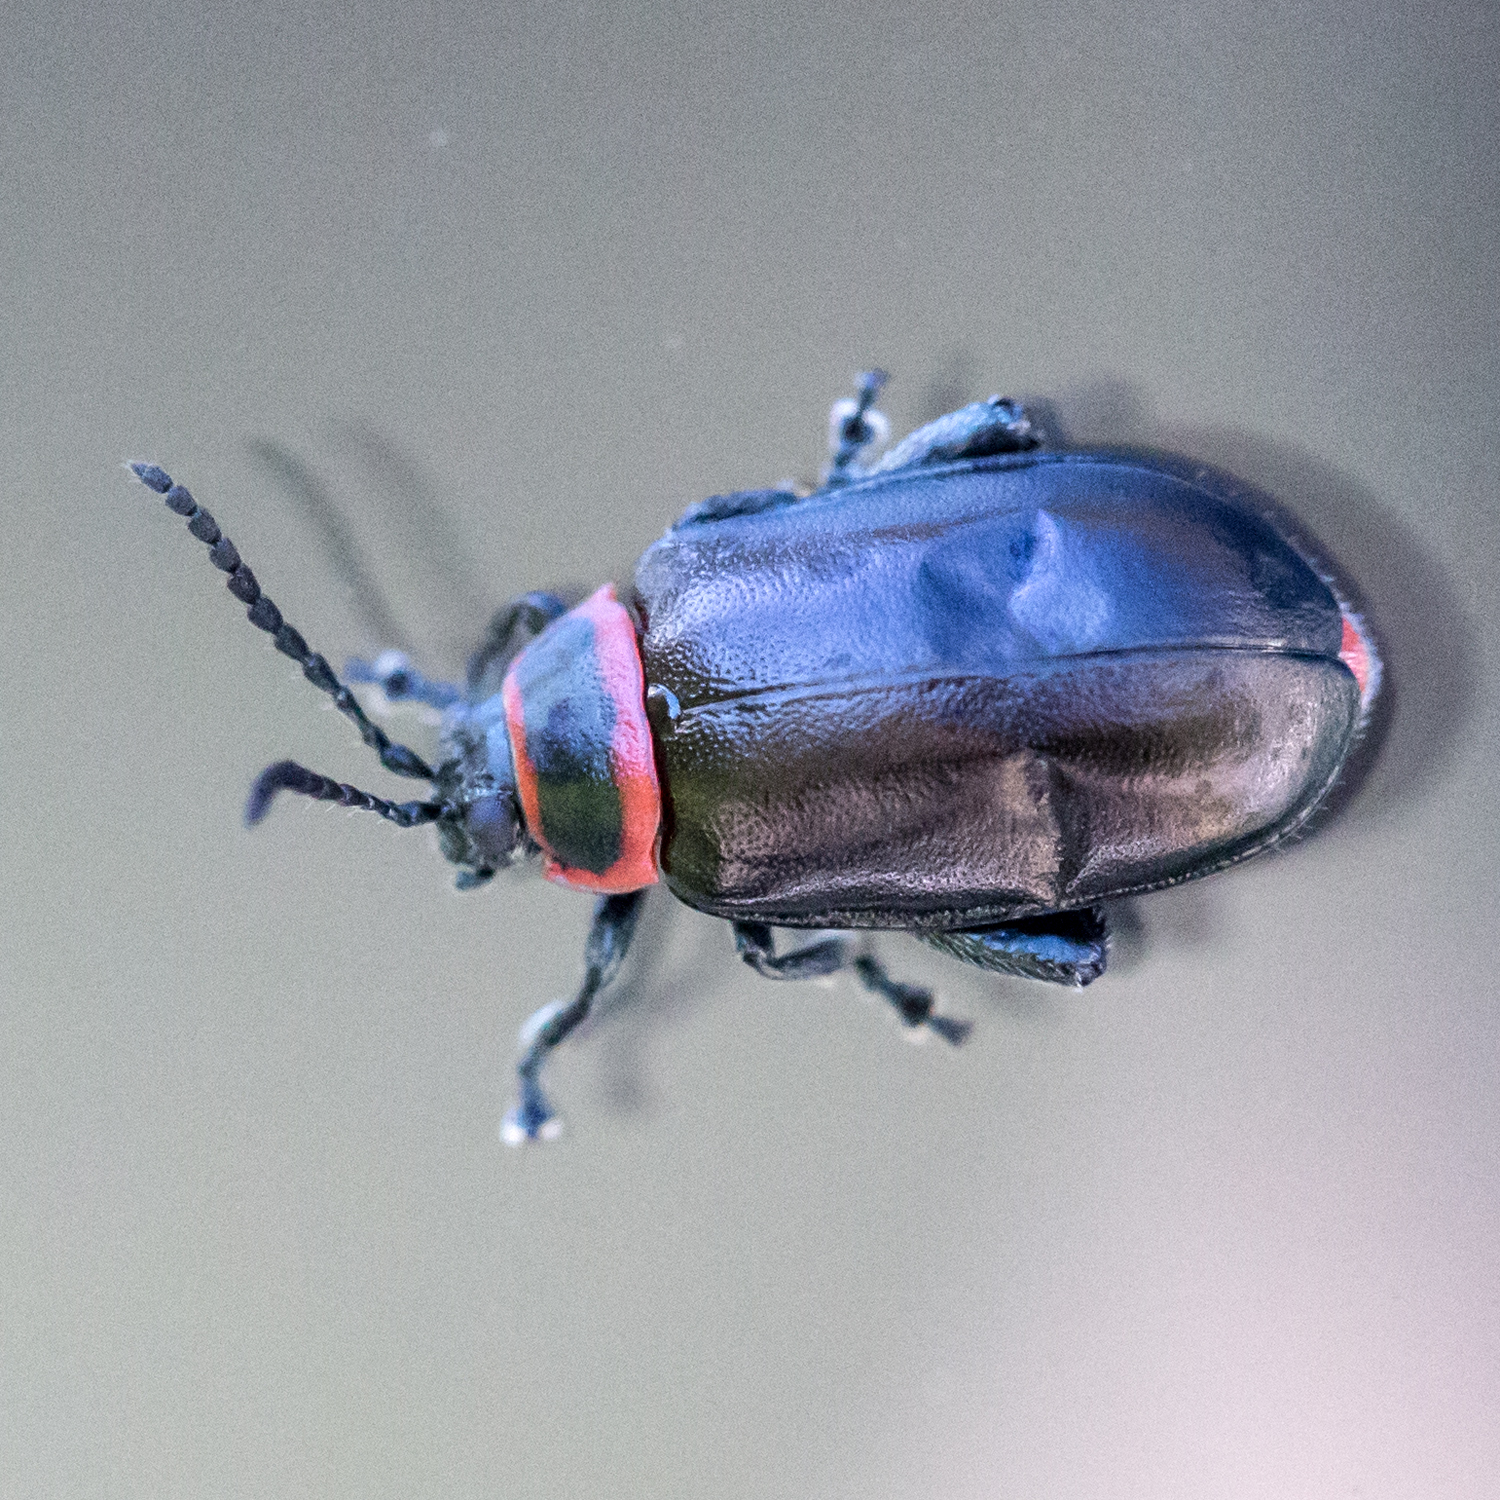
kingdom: Animalia
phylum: Arthropoda
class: Insecta
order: Coleoptera
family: Chrysomelidae
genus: Kuschelina
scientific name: Kuschelina vians
